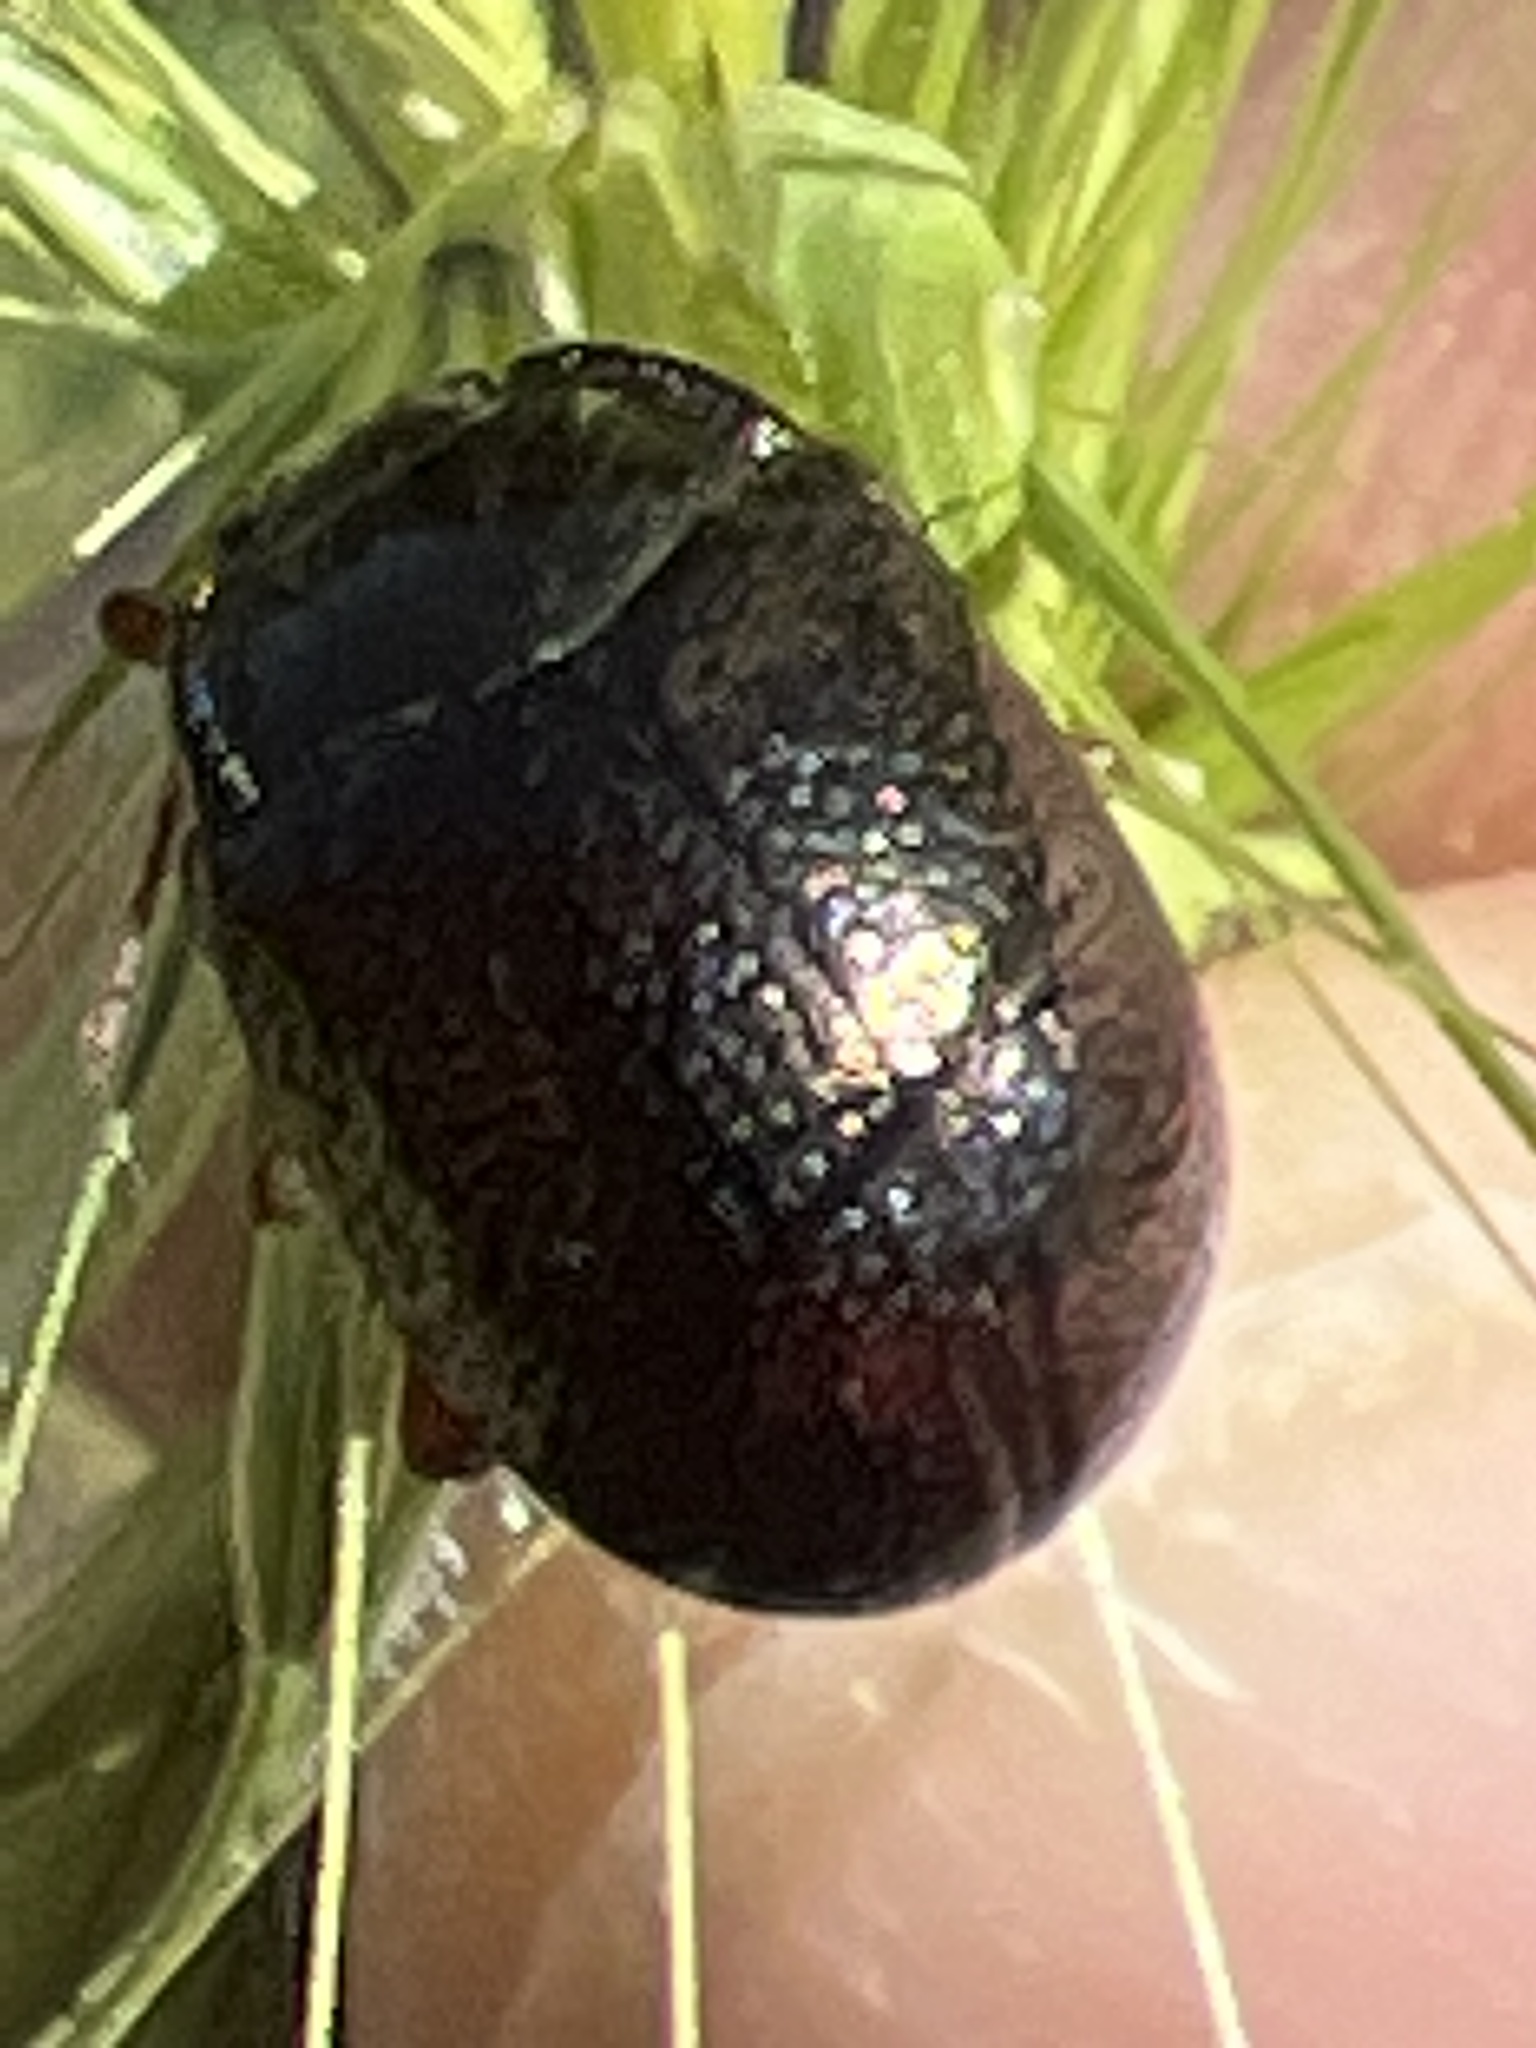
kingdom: Animalia
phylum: Arthropoda
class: Insecta
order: Coleoptera
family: Chrysomelidae
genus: Chrysolina
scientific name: Chrysolina bankii
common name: Leaf beetle
